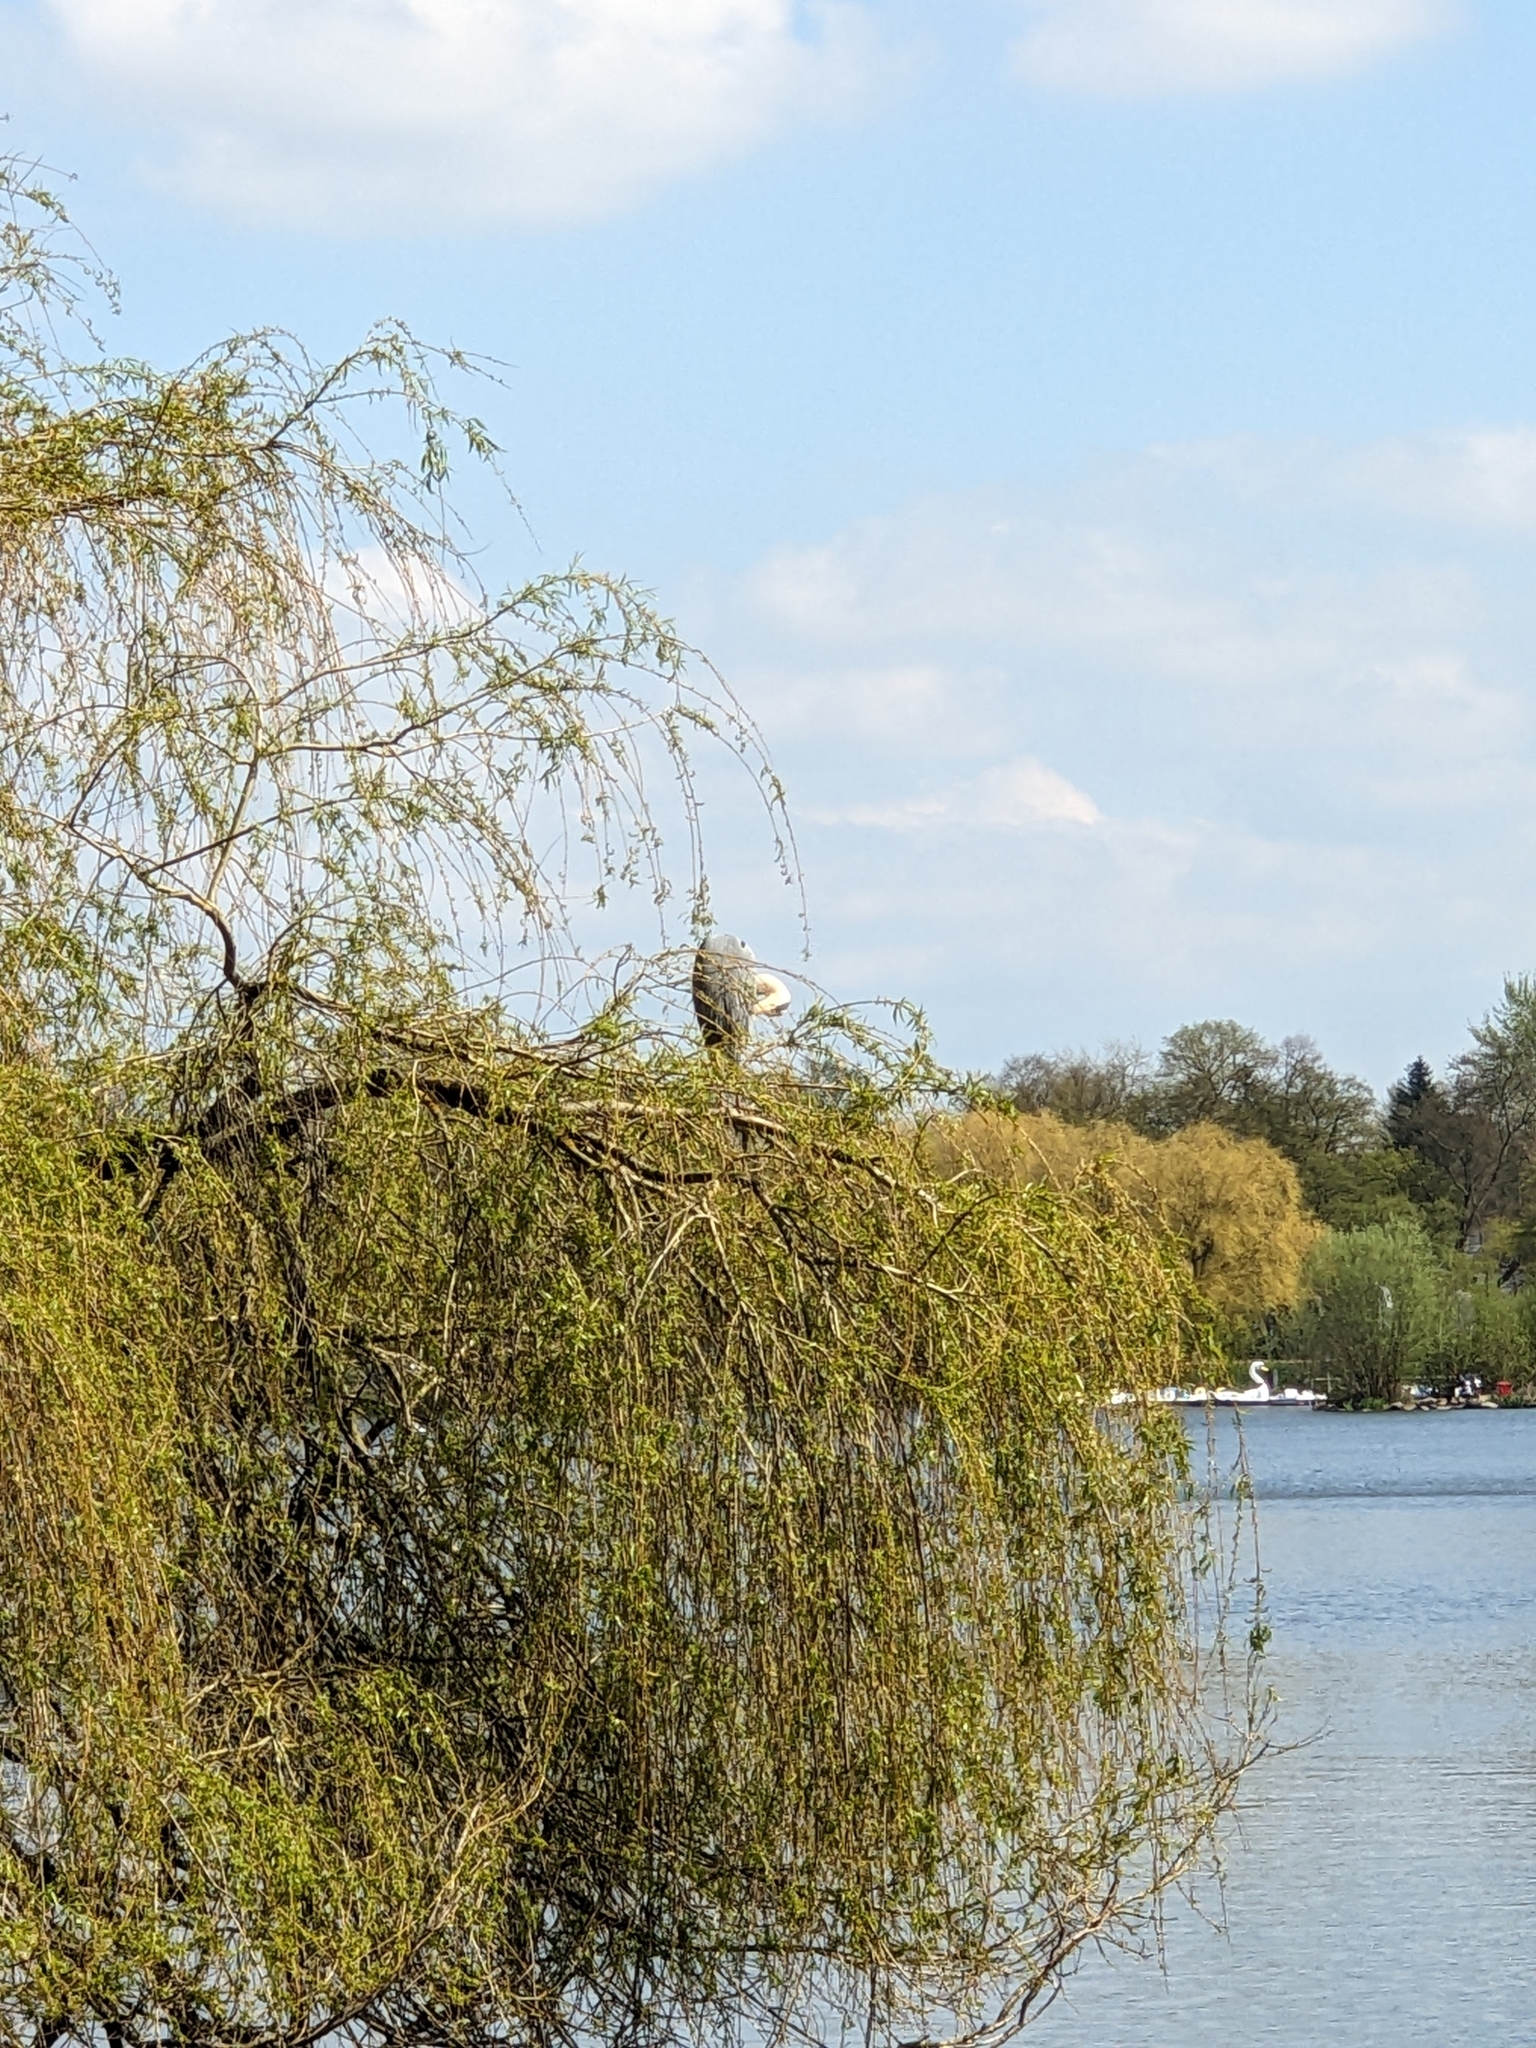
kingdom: Animalia
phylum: Chordata
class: Aves
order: Pelecaniformes
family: Ardeidae
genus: Ardea
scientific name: Ardea cinerea
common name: Grey heron
